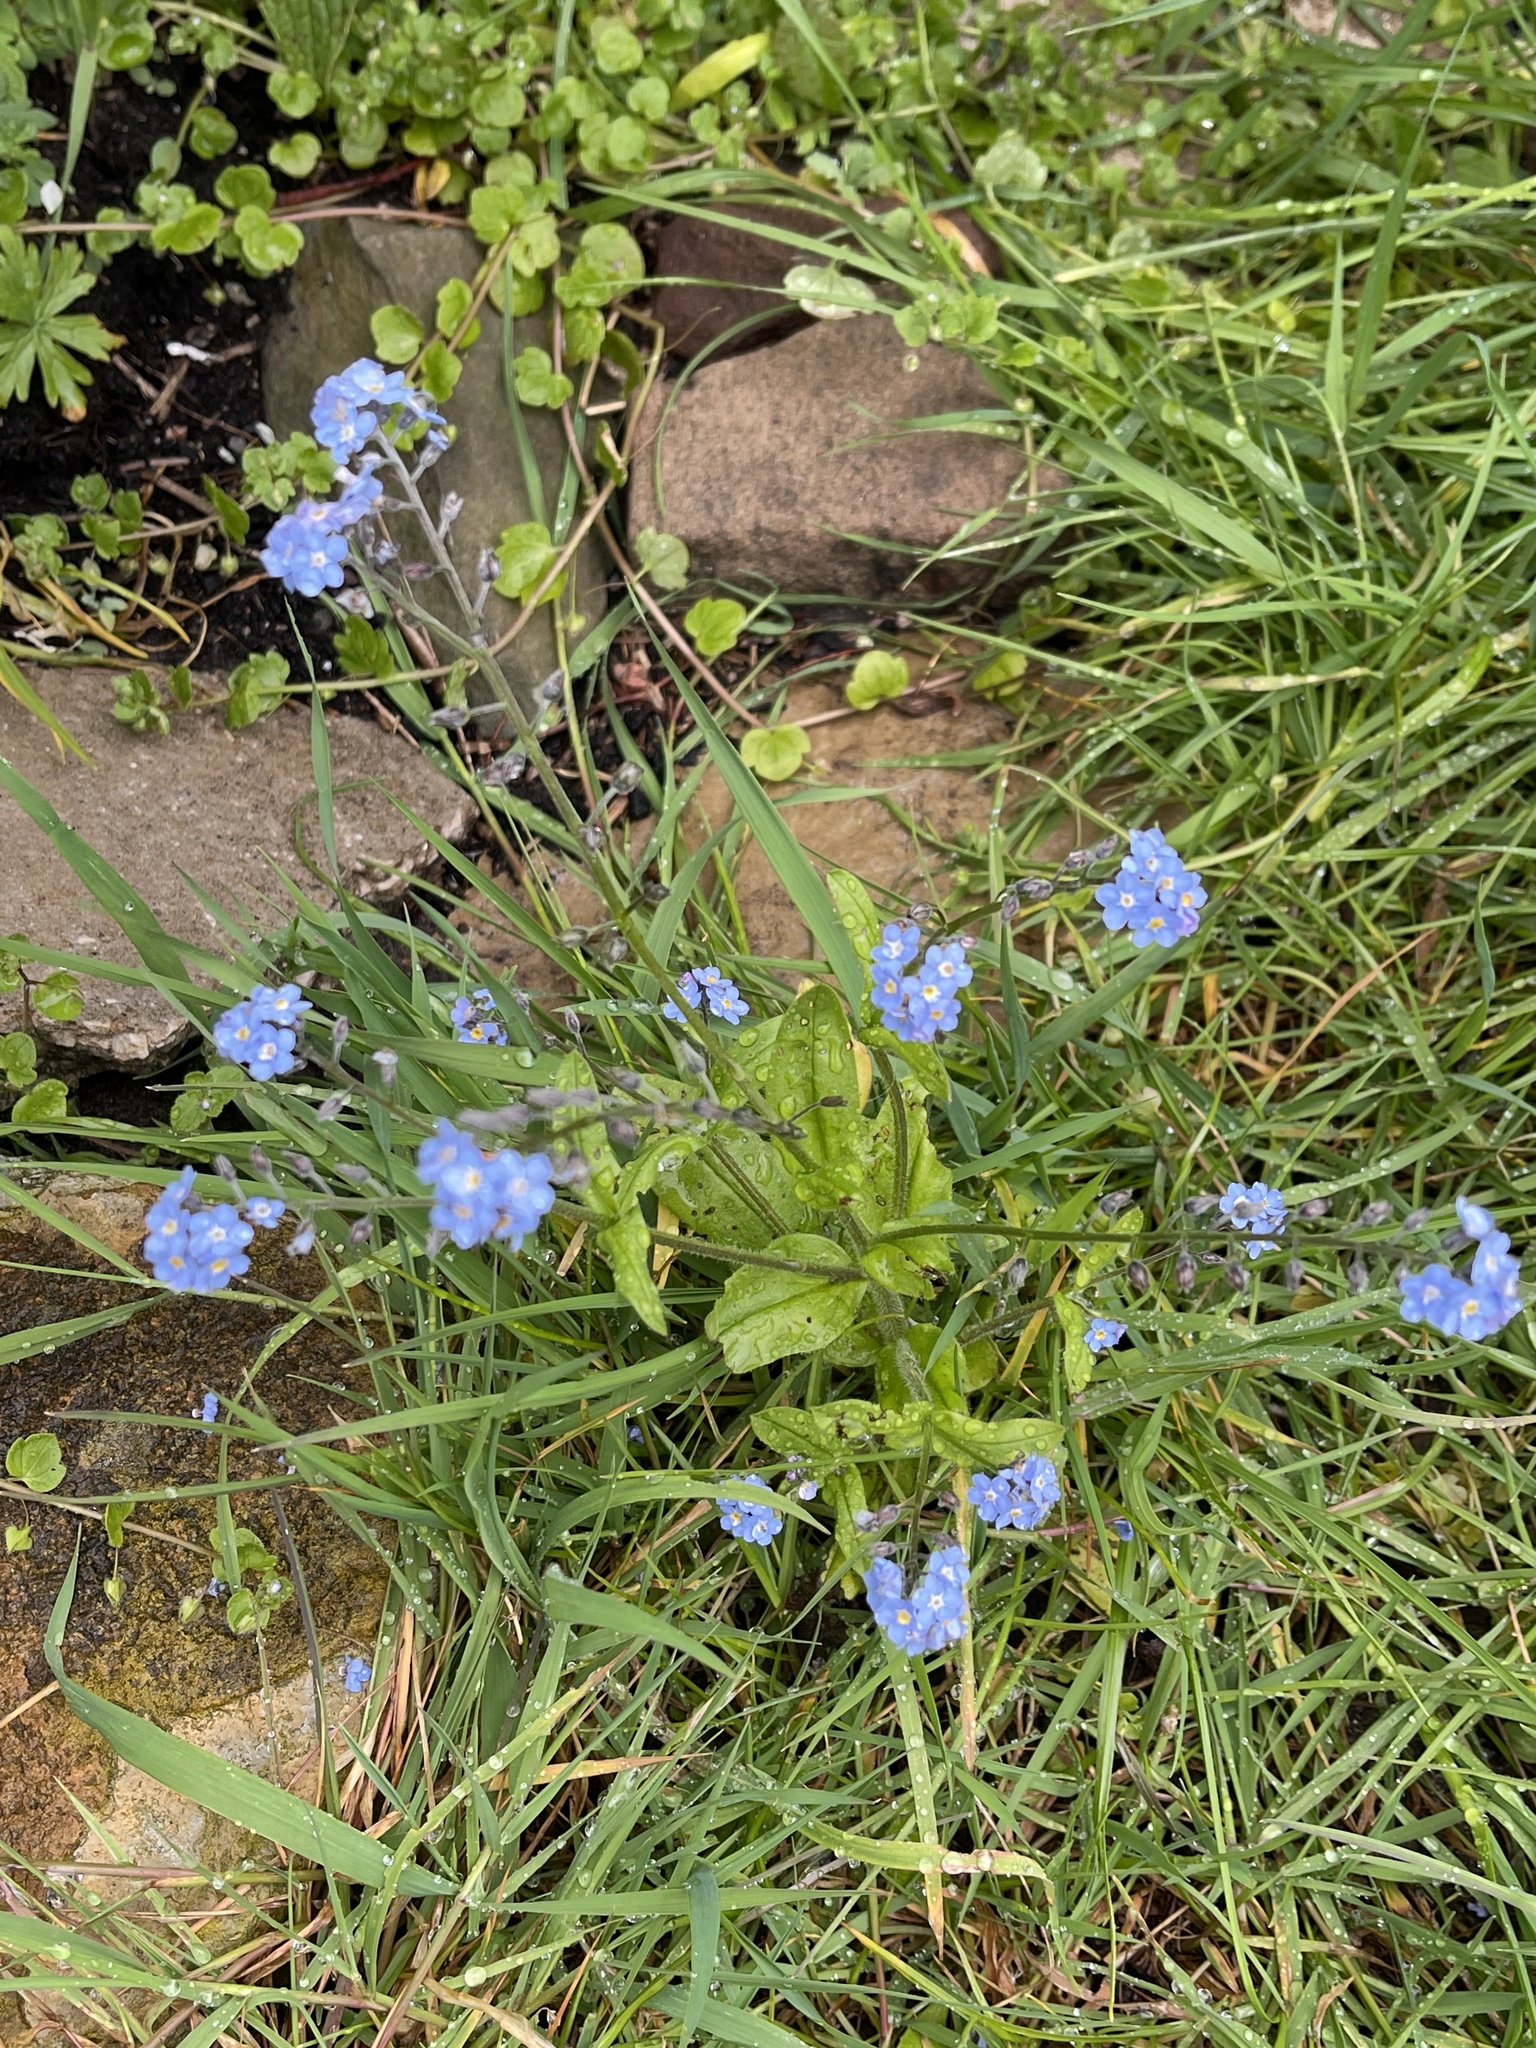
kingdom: Plantae
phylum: Tracheophyta
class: Magnoliopsida
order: Boraginales
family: Boraginaceae
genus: Myosotis
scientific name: Myosotis sylvatica
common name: Wood forget-me-not
